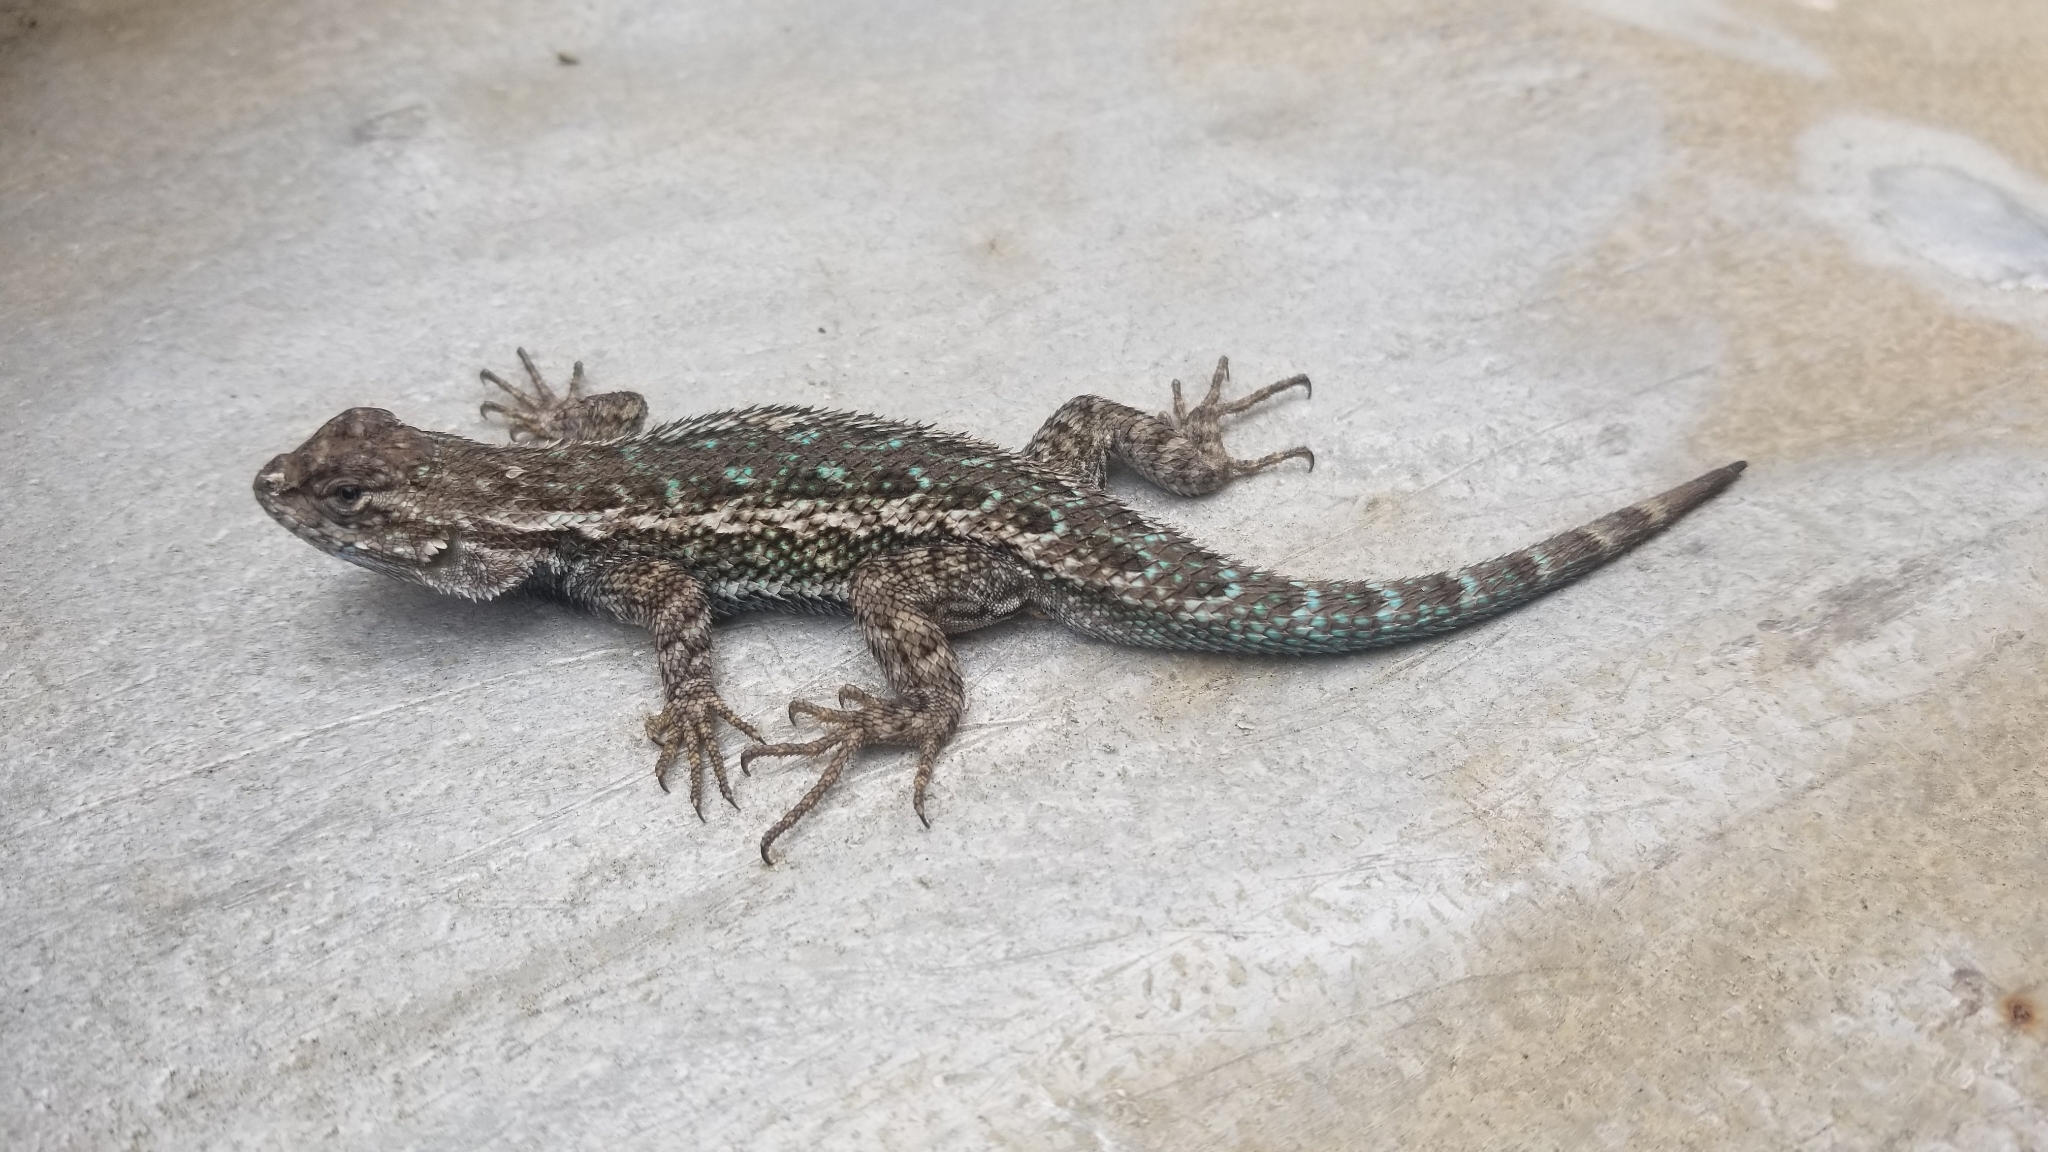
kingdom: Animalia
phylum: Chordata
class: Squamata
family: Phrynosomatidae
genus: Sceloporus
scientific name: Sceloporus occidentalis
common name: Western fence lizard
